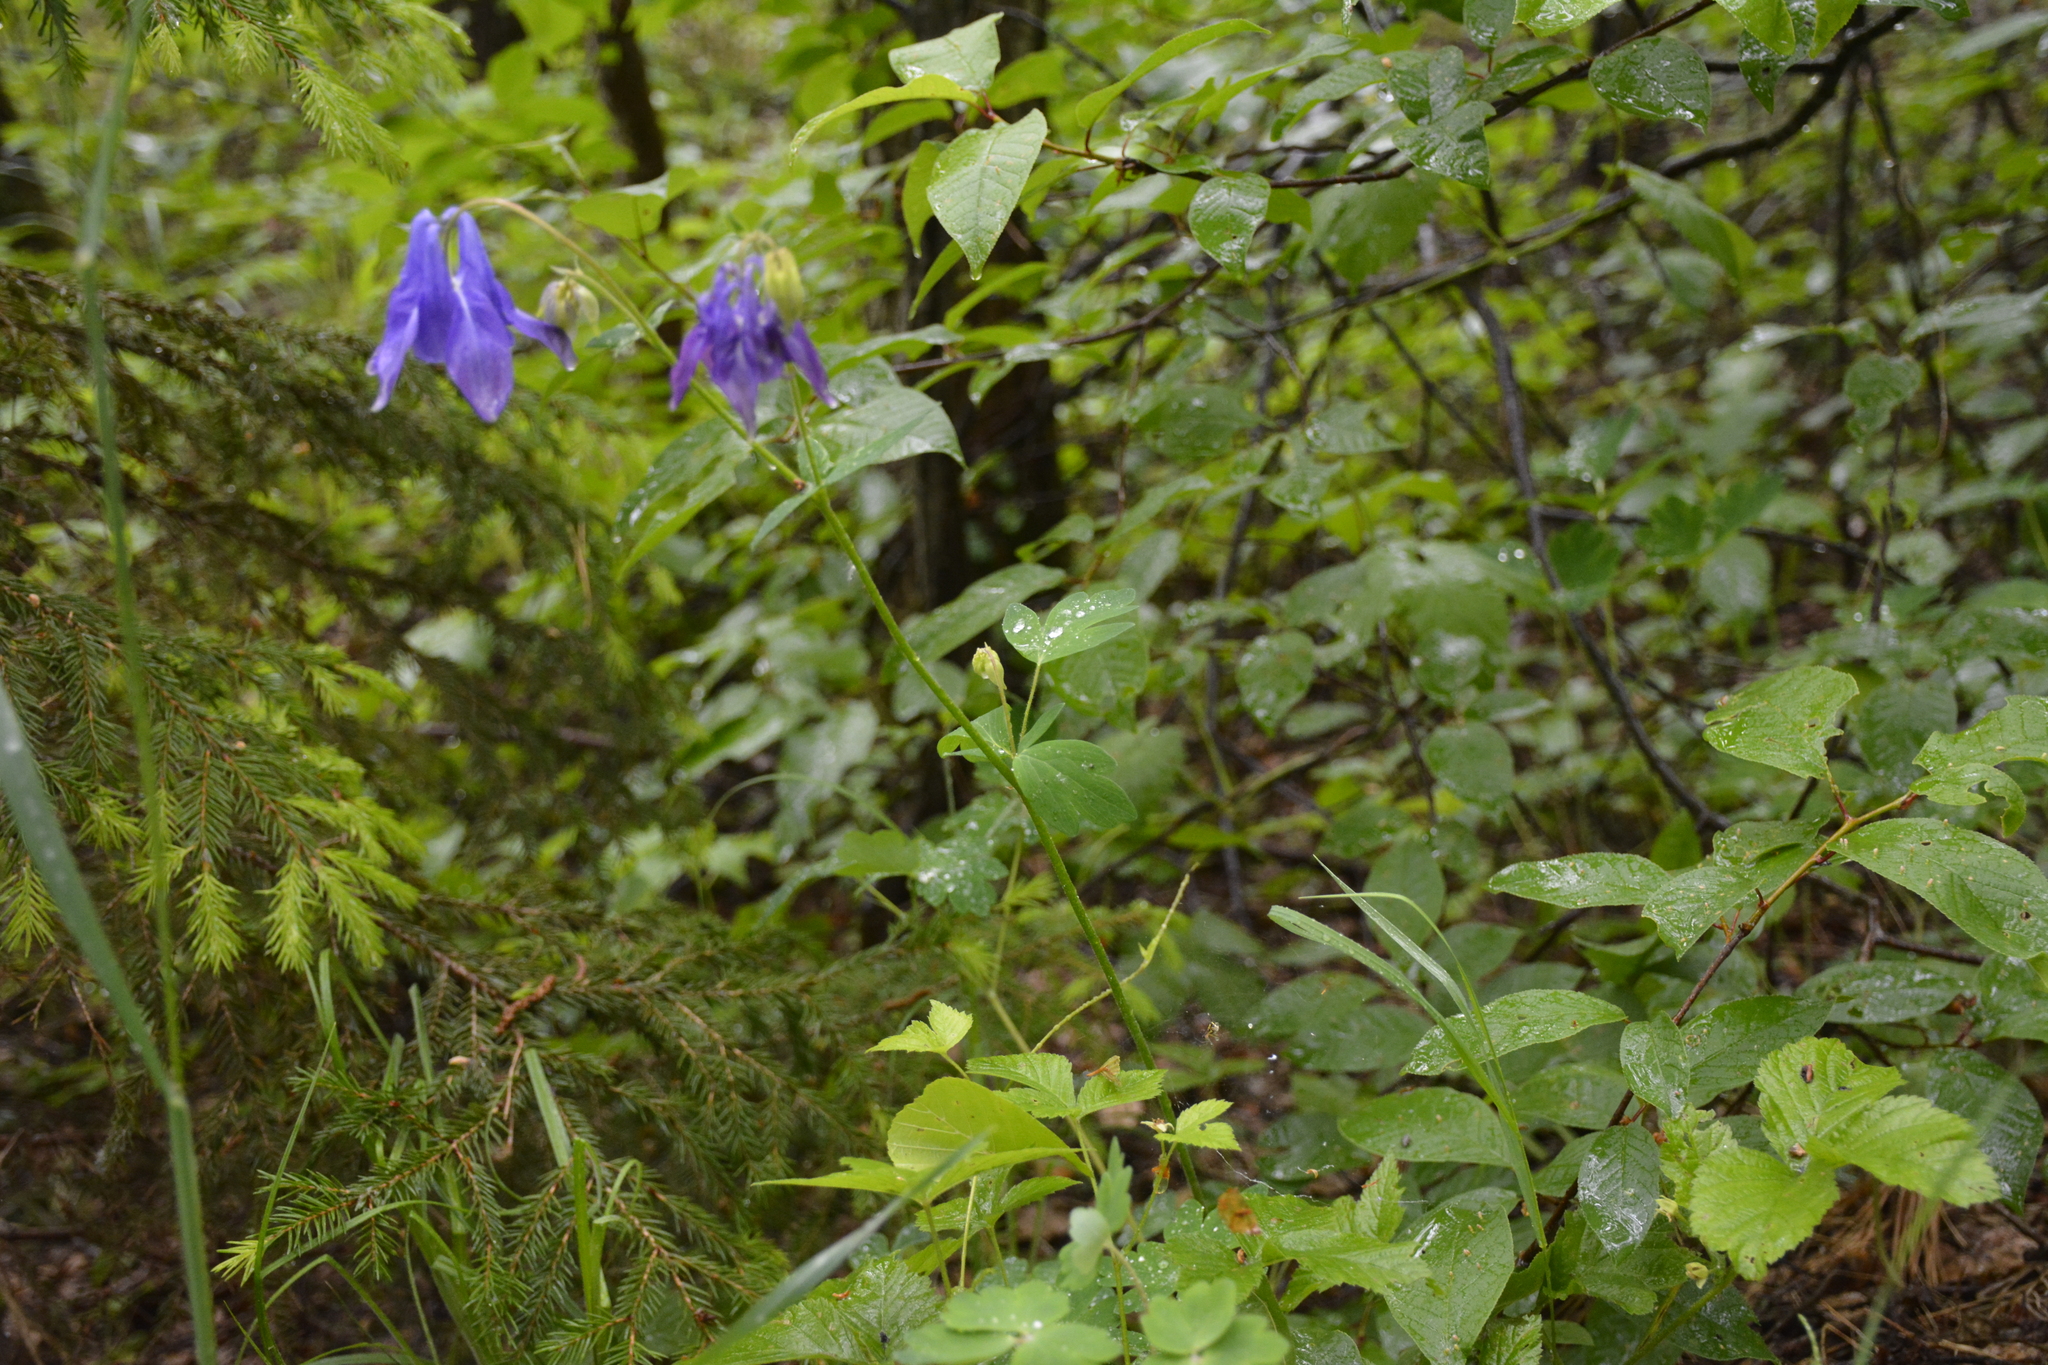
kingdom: Plantae
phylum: Tracheophyta
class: Magnoliopsida
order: Ranunculales
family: Ranunculaceae
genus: Aquilegia
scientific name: Aquilegia vulgaris
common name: Columbine
